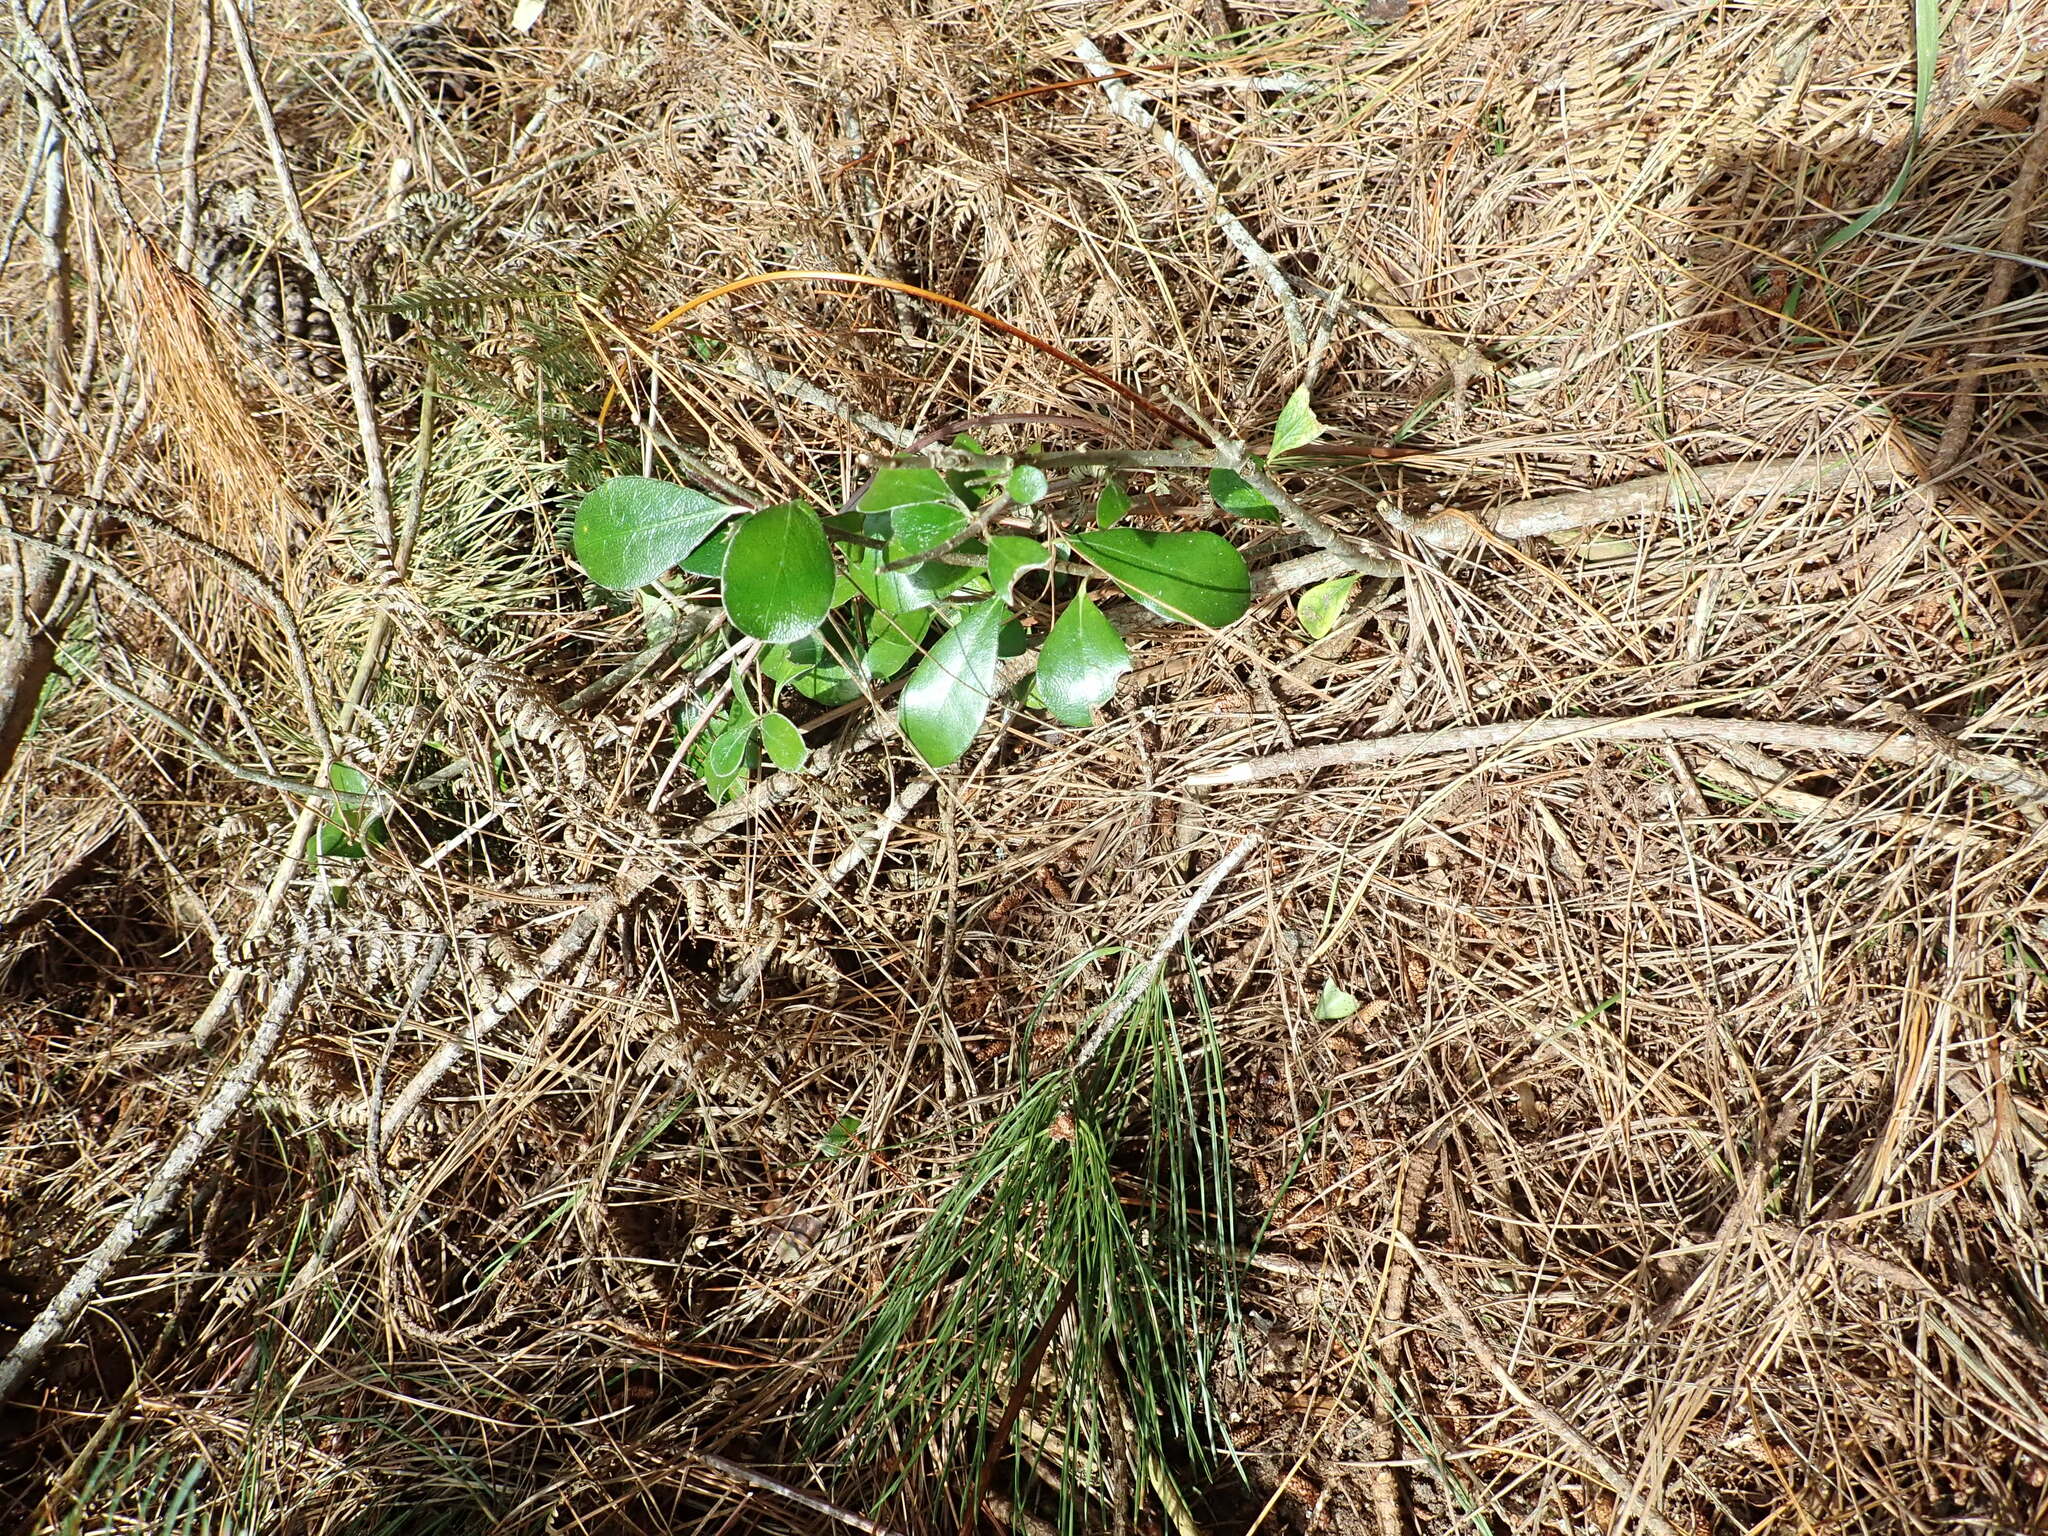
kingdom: Plantae
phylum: Tracheophyta
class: Magnoliopsida
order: Asterales
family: Asteraceae
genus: Olearia
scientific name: Olearia furfuracea
